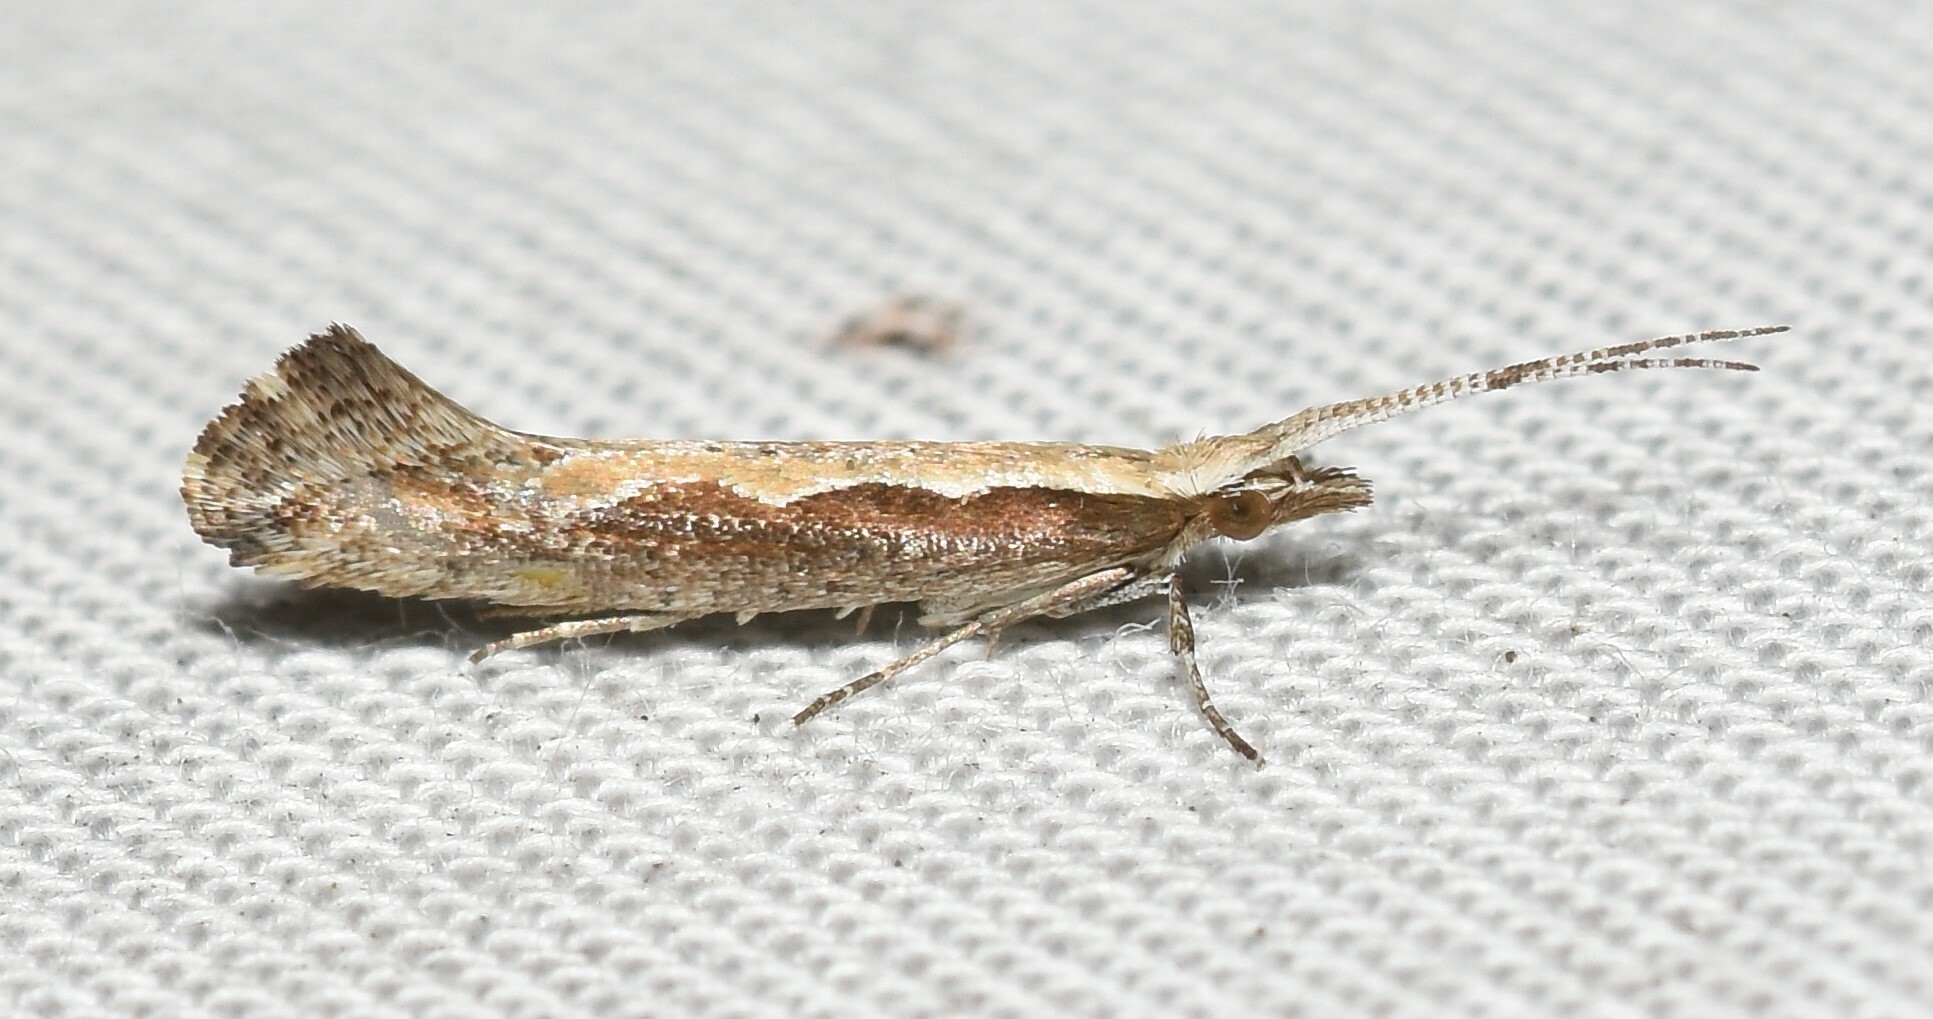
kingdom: Animalia
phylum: Arthropoda
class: Insecta
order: Lepidoptera
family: Plutellidae
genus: Plutella
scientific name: Plutella xylostella
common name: Diamond-back moth
